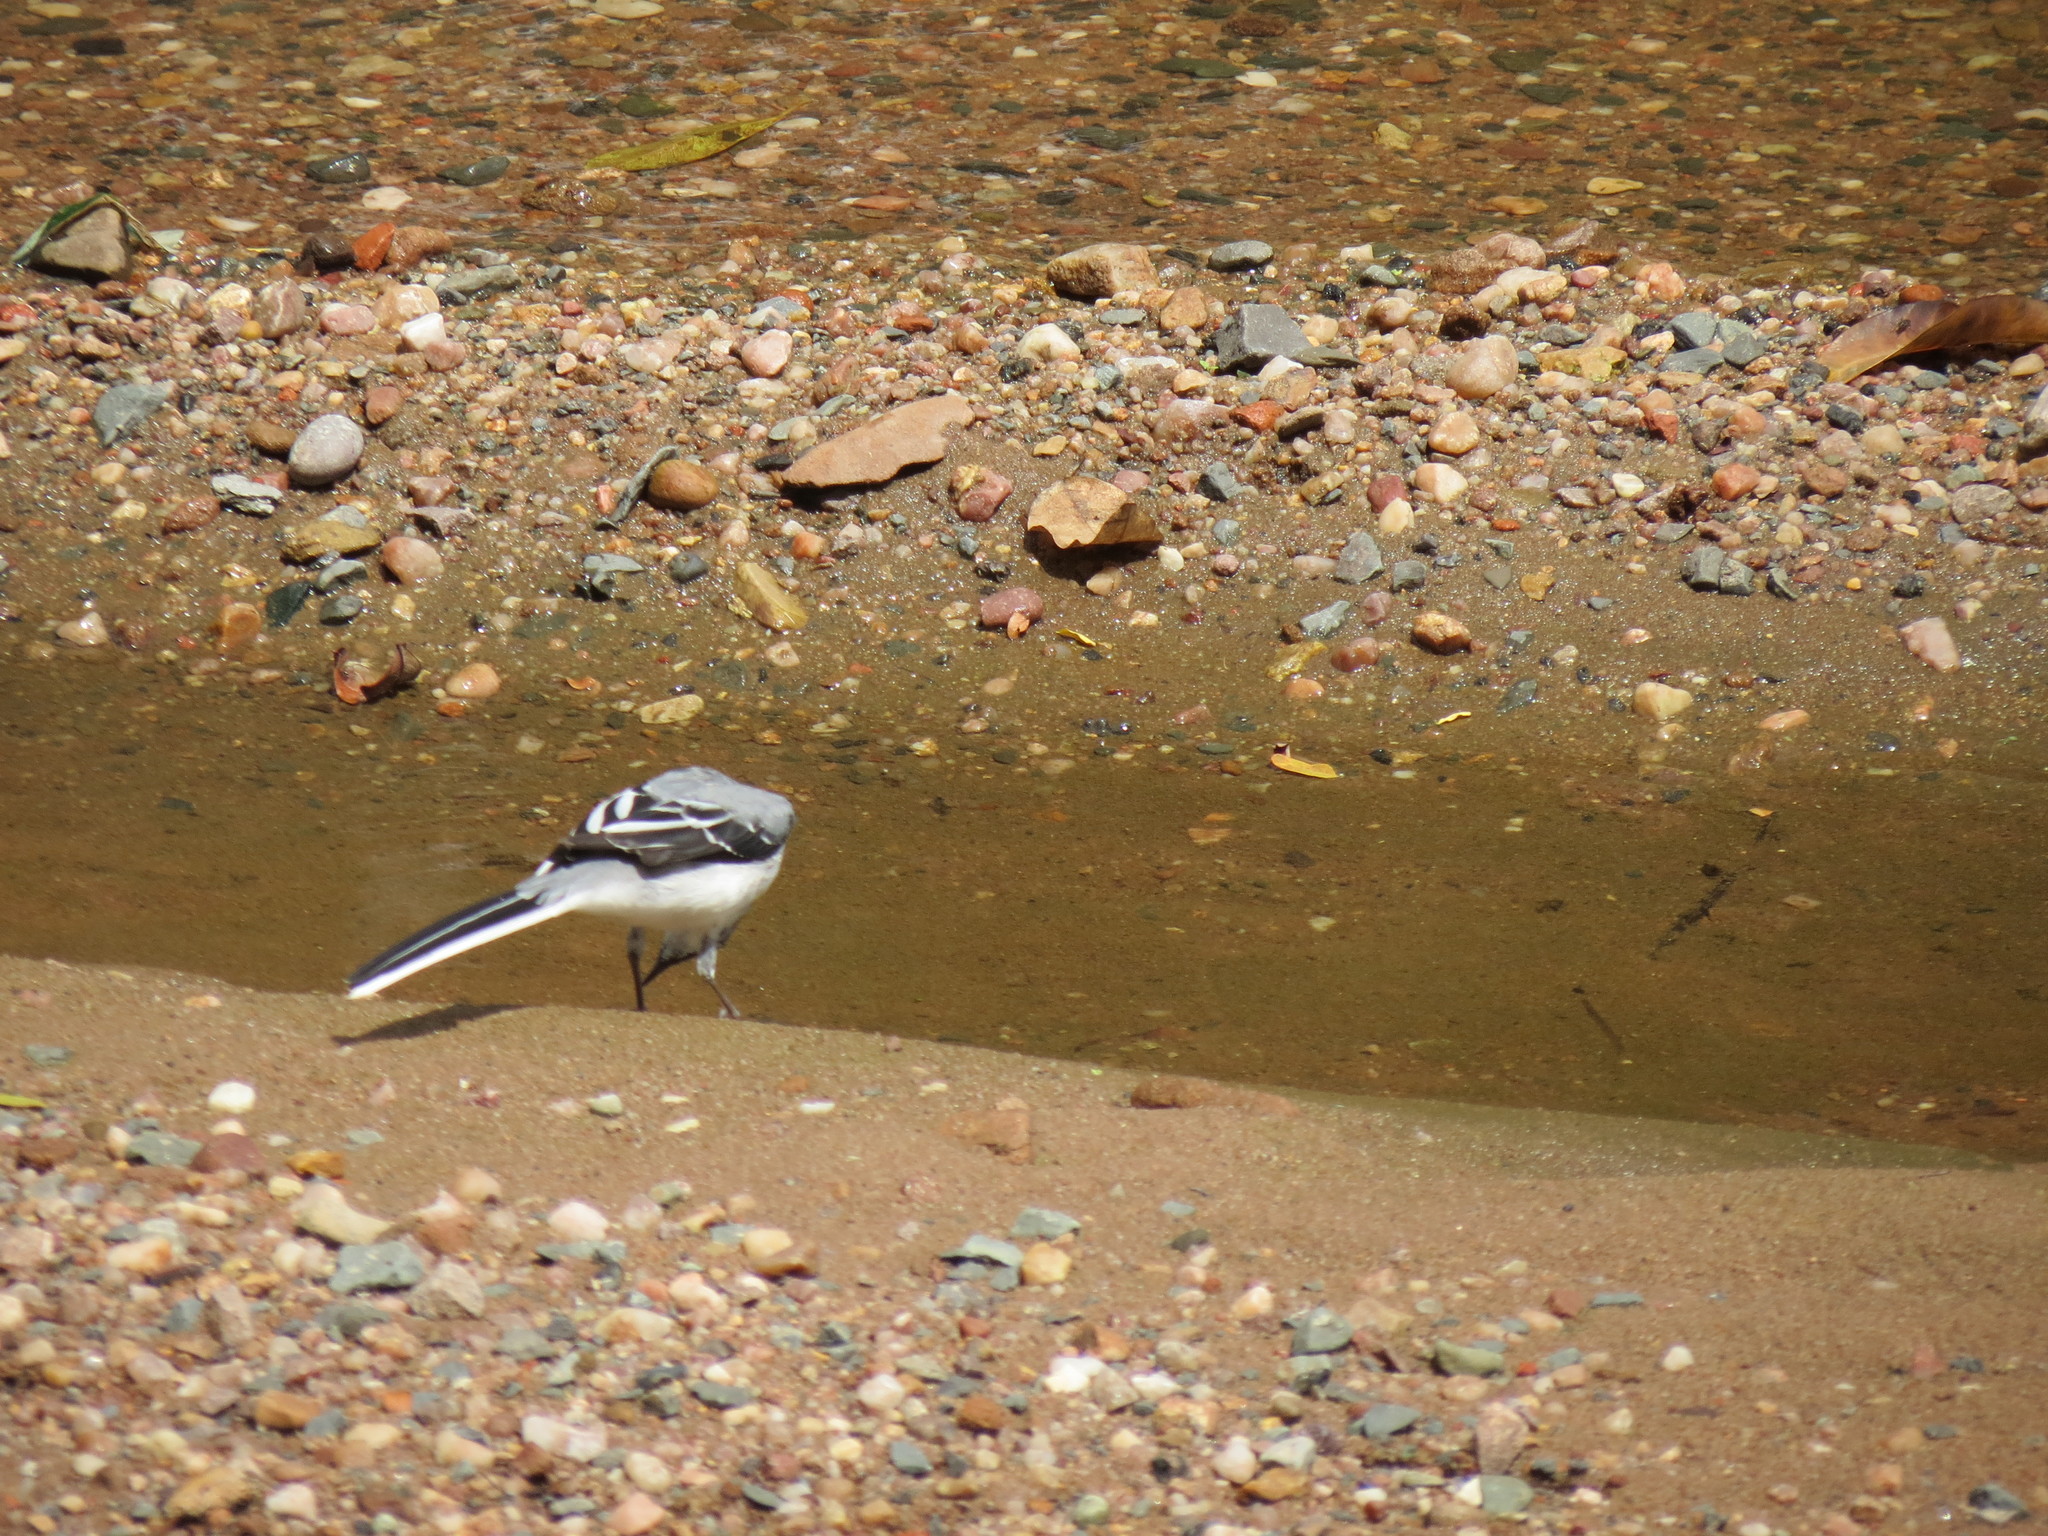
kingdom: Animalia
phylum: Chordata
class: Aves
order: Passeriformes
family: Motacillidae
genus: Motacilla
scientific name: Motacilla clara
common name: Mountain wagtail
